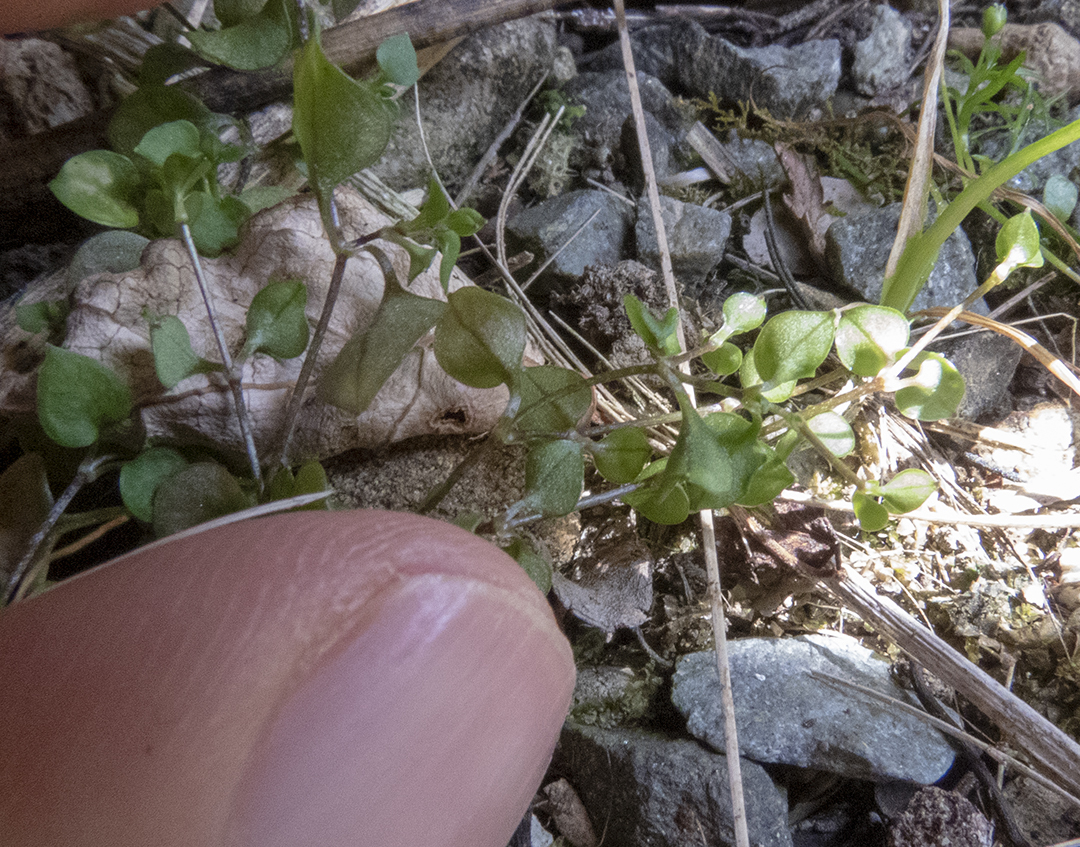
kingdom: Plantae
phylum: Tracheophyta
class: Magnoliopsida
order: Caryophyllales
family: Caryophyllaceae
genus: Stellaria
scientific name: Stellaria parviflora
